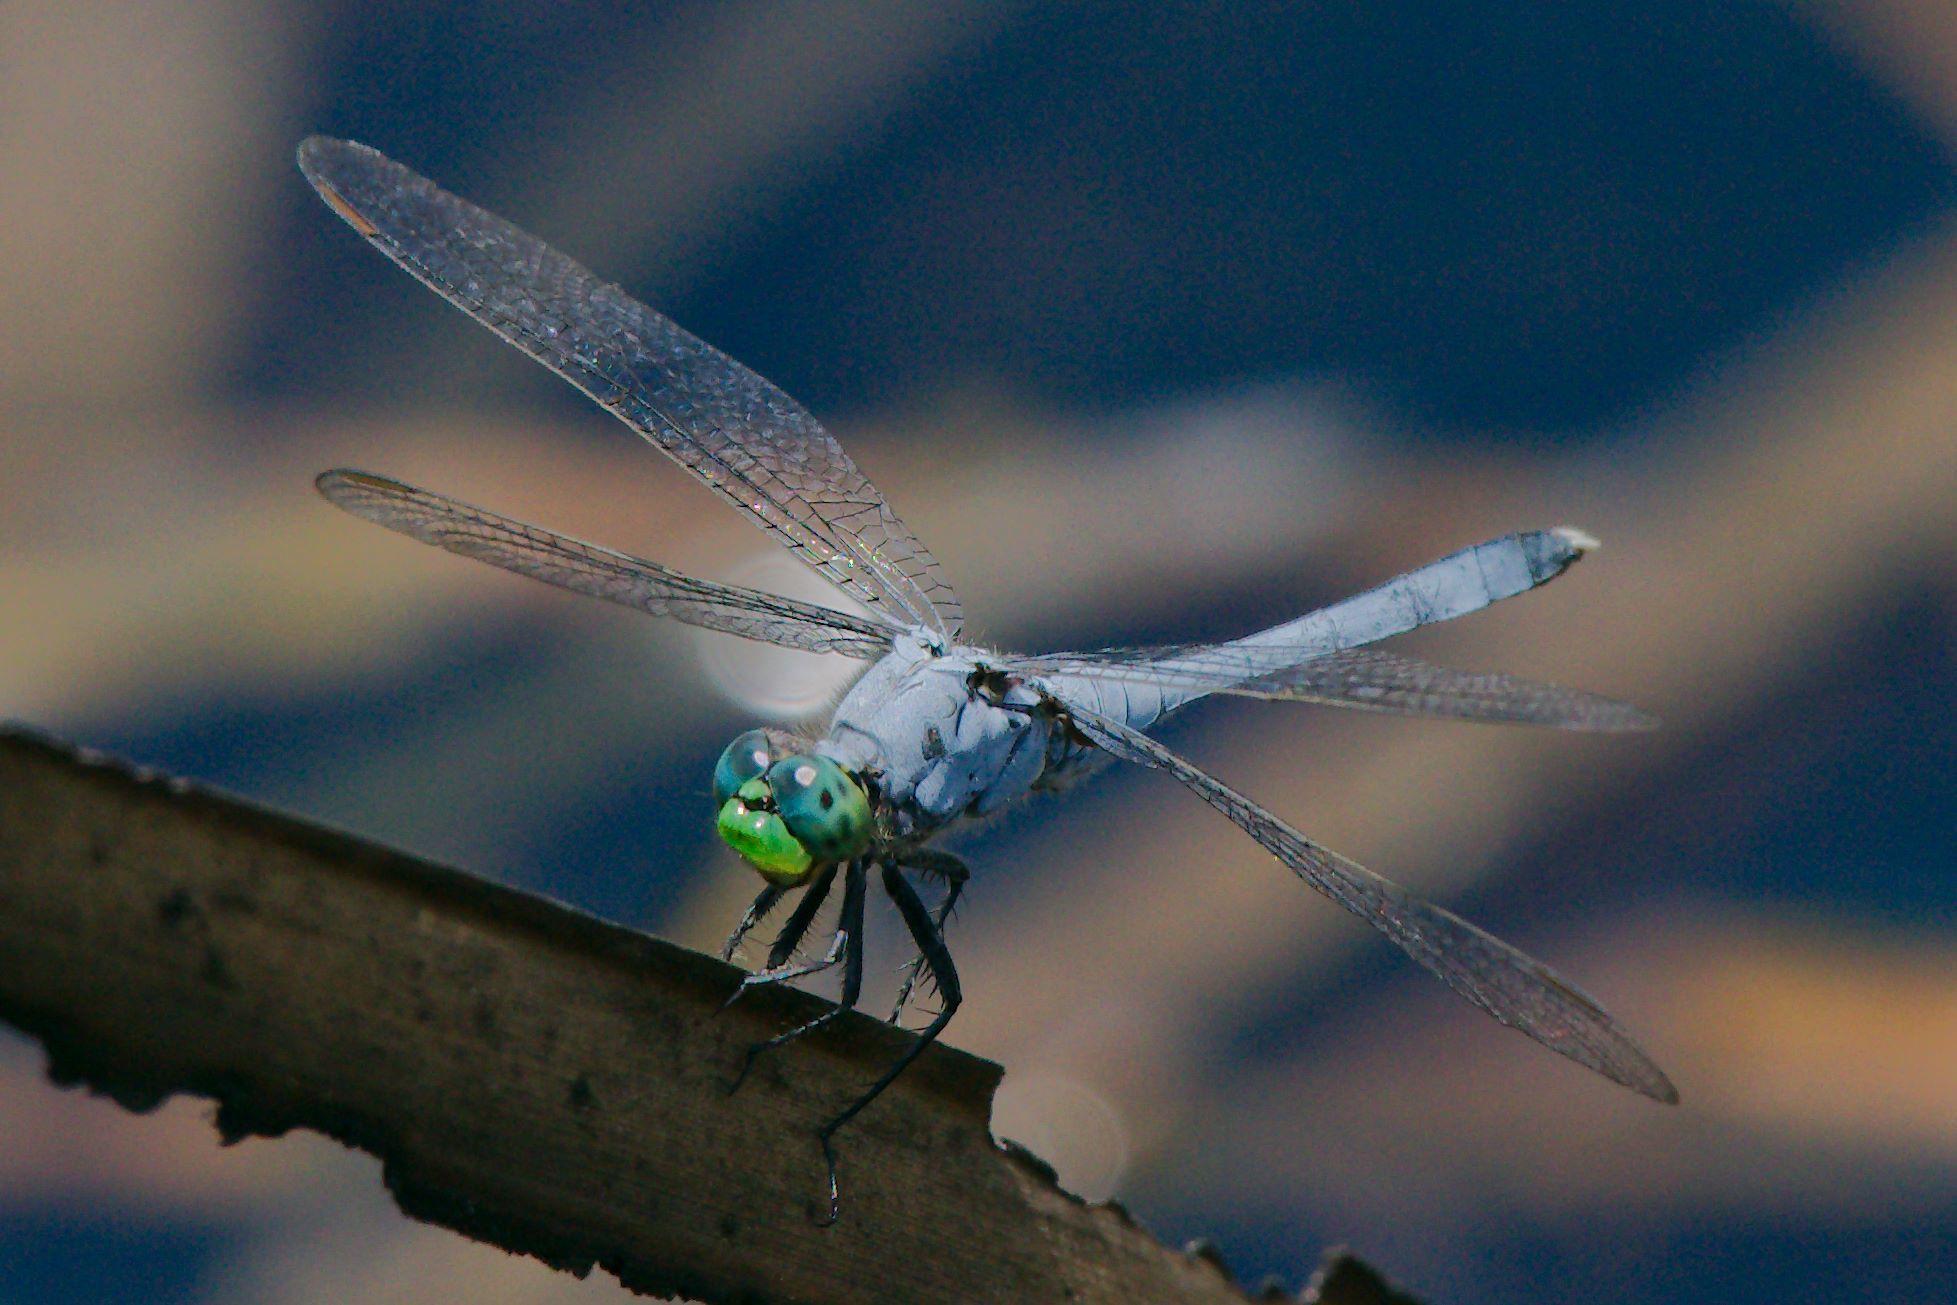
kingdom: Animalia
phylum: Arthropoda
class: Insecta
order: Odonata
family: Libellulidae
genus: Erythemis
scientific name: Erythemis simplicicollis
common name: Eastern pondhawk
